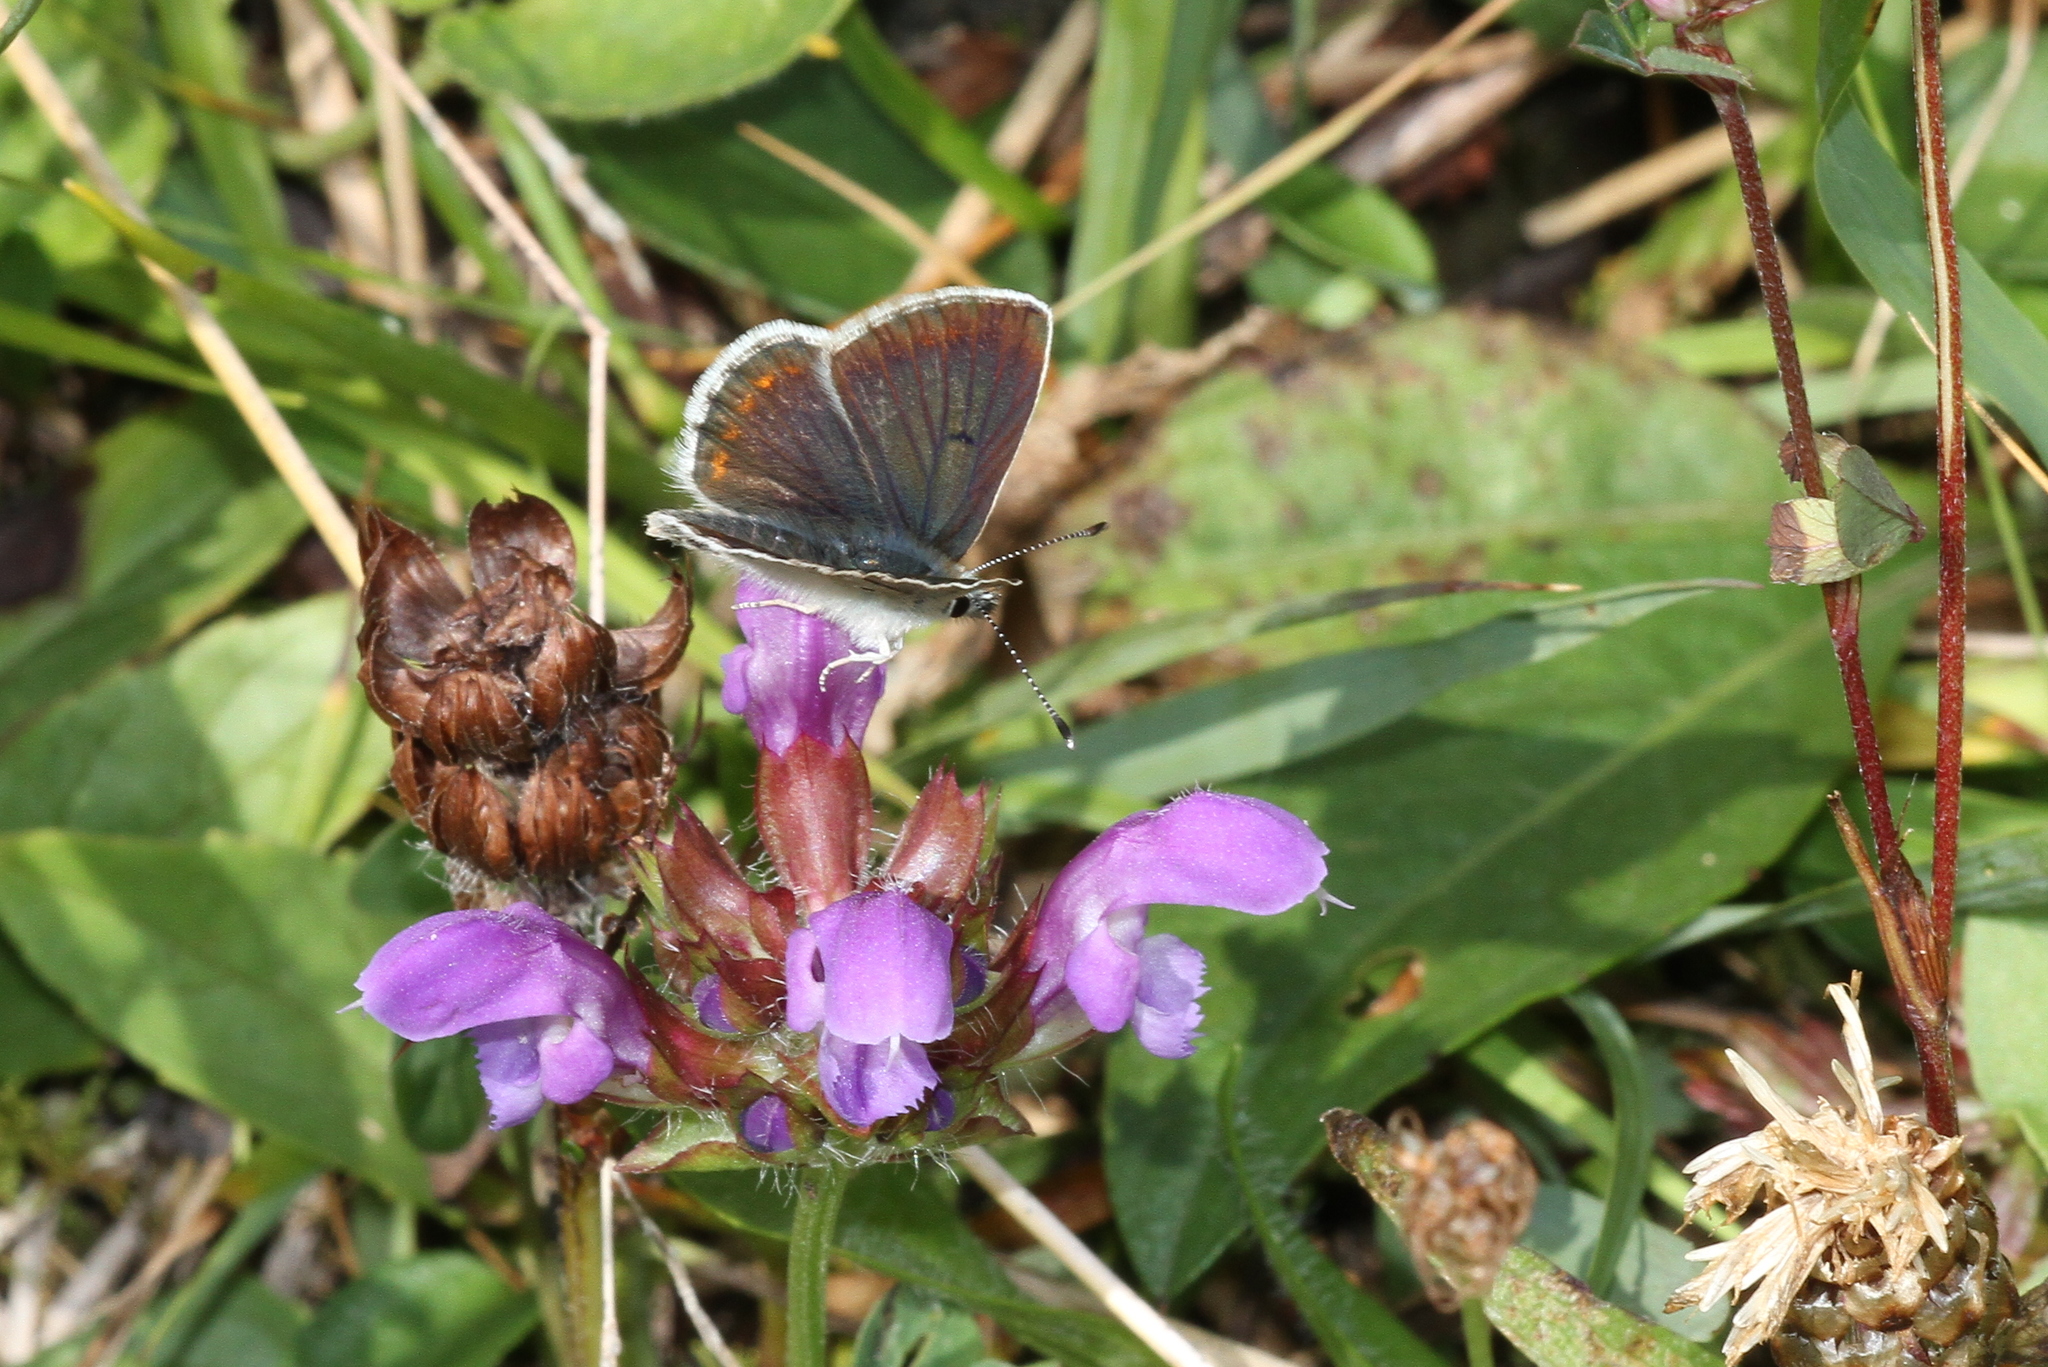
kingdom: Animalia
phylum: Arthropoda
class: Insecta
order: Lepidoptera
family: Lycaenidae
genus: Aricia
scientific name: Aricia artaxerxes
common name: Northern brown argus
